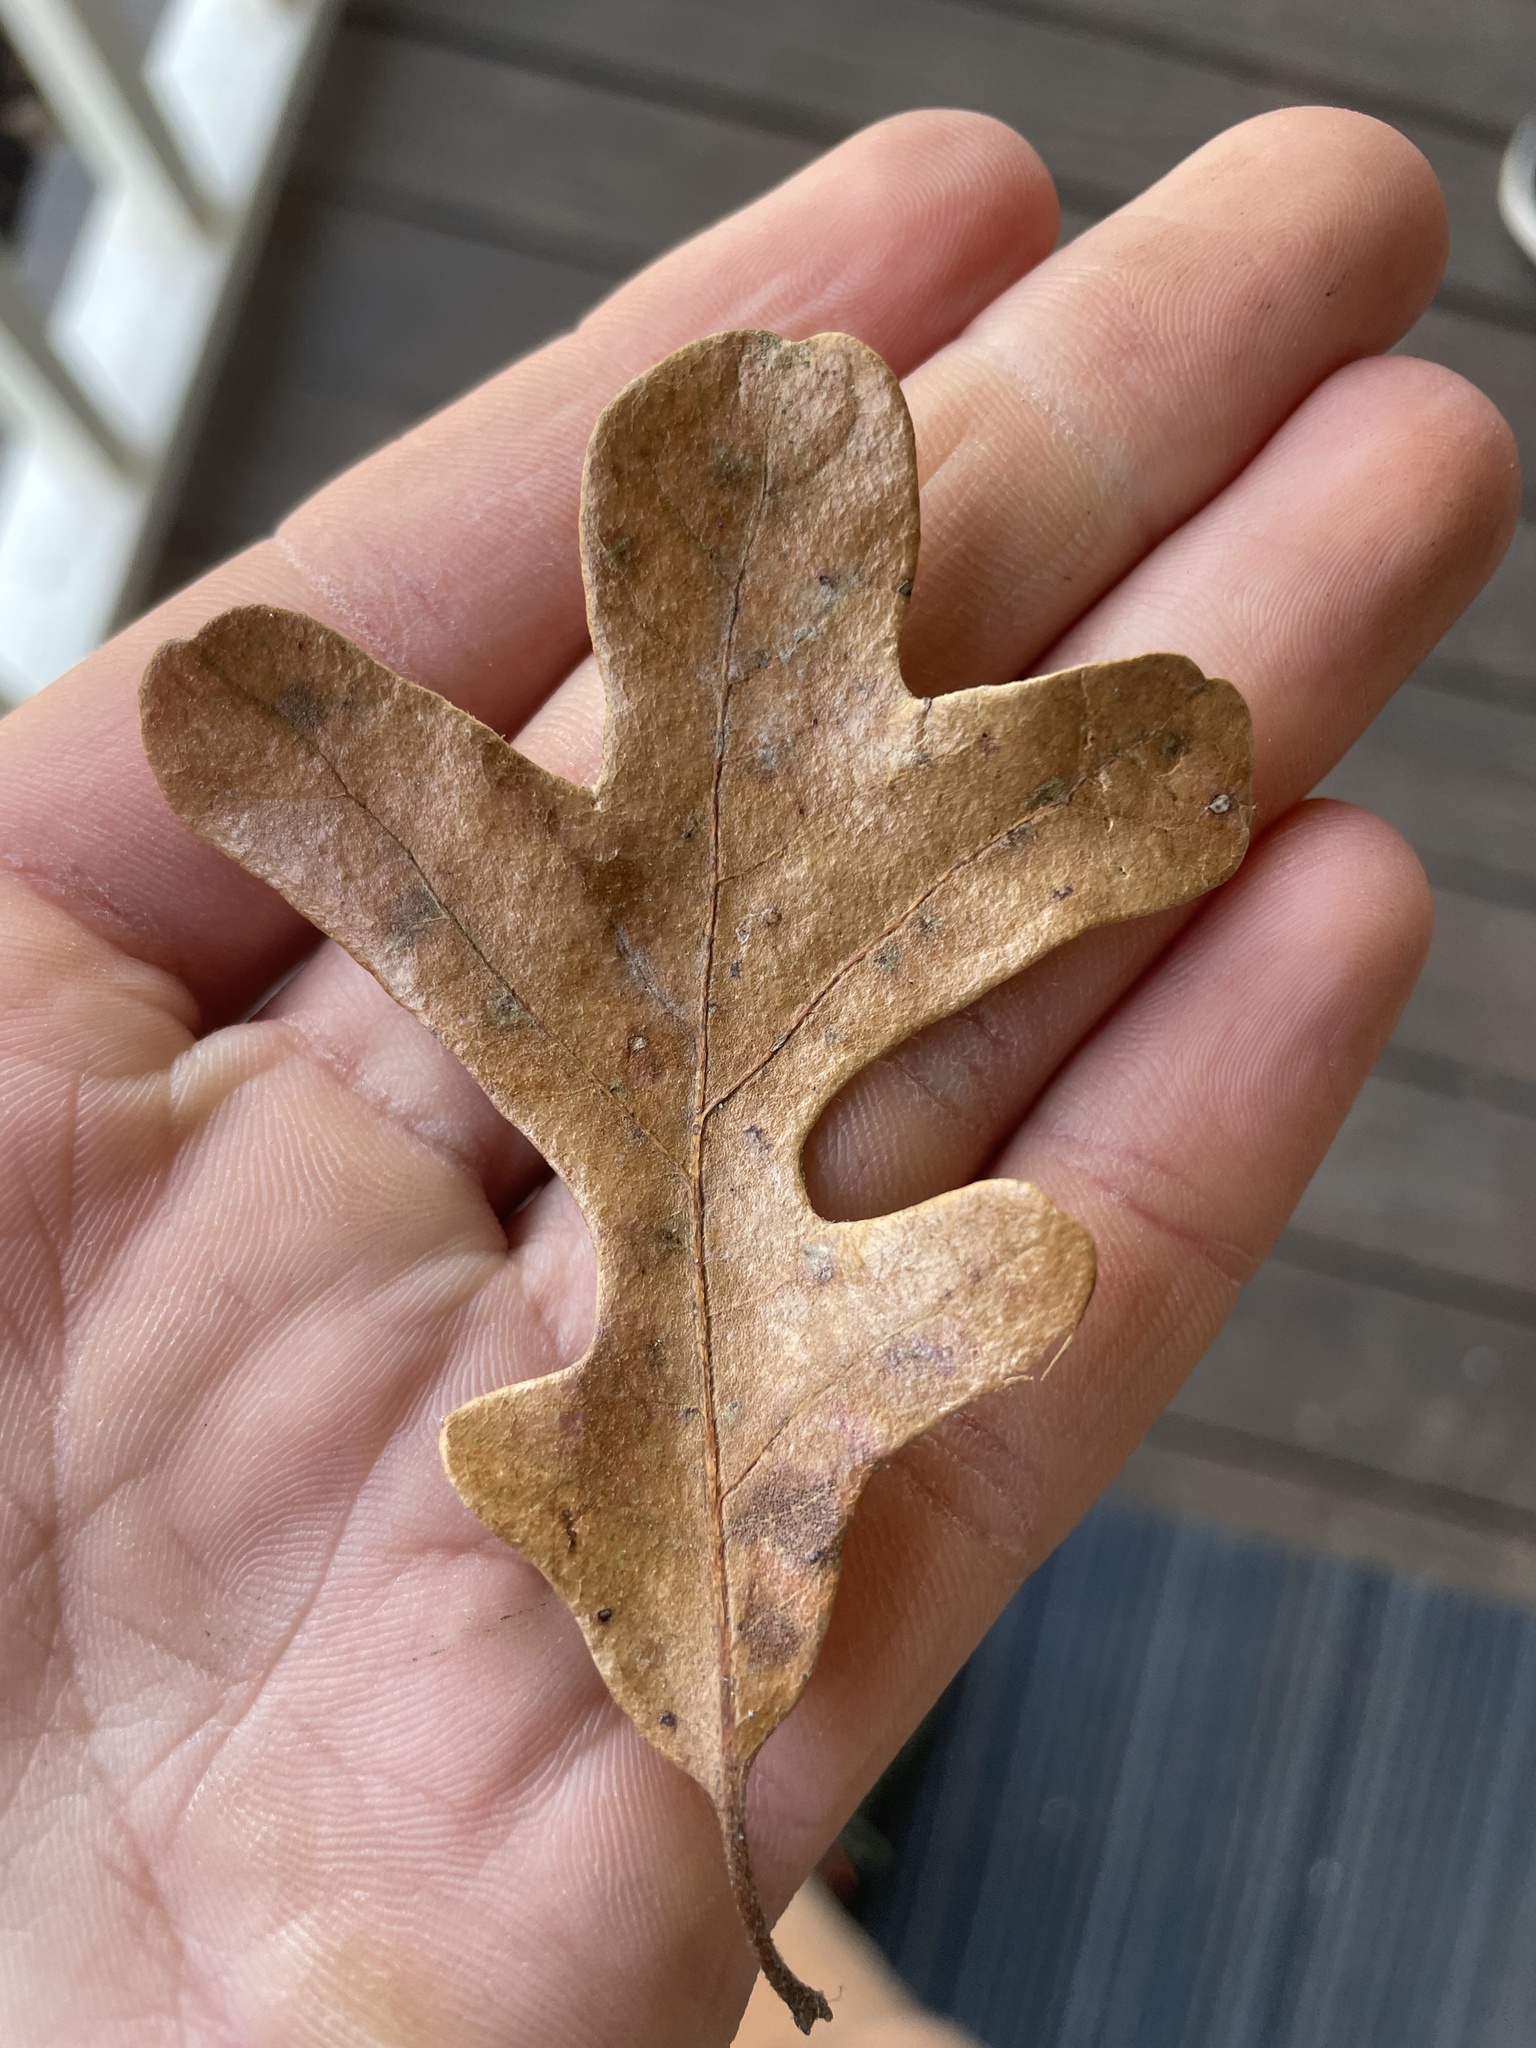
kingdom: Plantae
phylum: Tracheophyta
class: Magnoliopsida
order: Fagales
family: Fagaceae
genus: Quercus
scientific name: Quercus stellata
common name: Post oak
